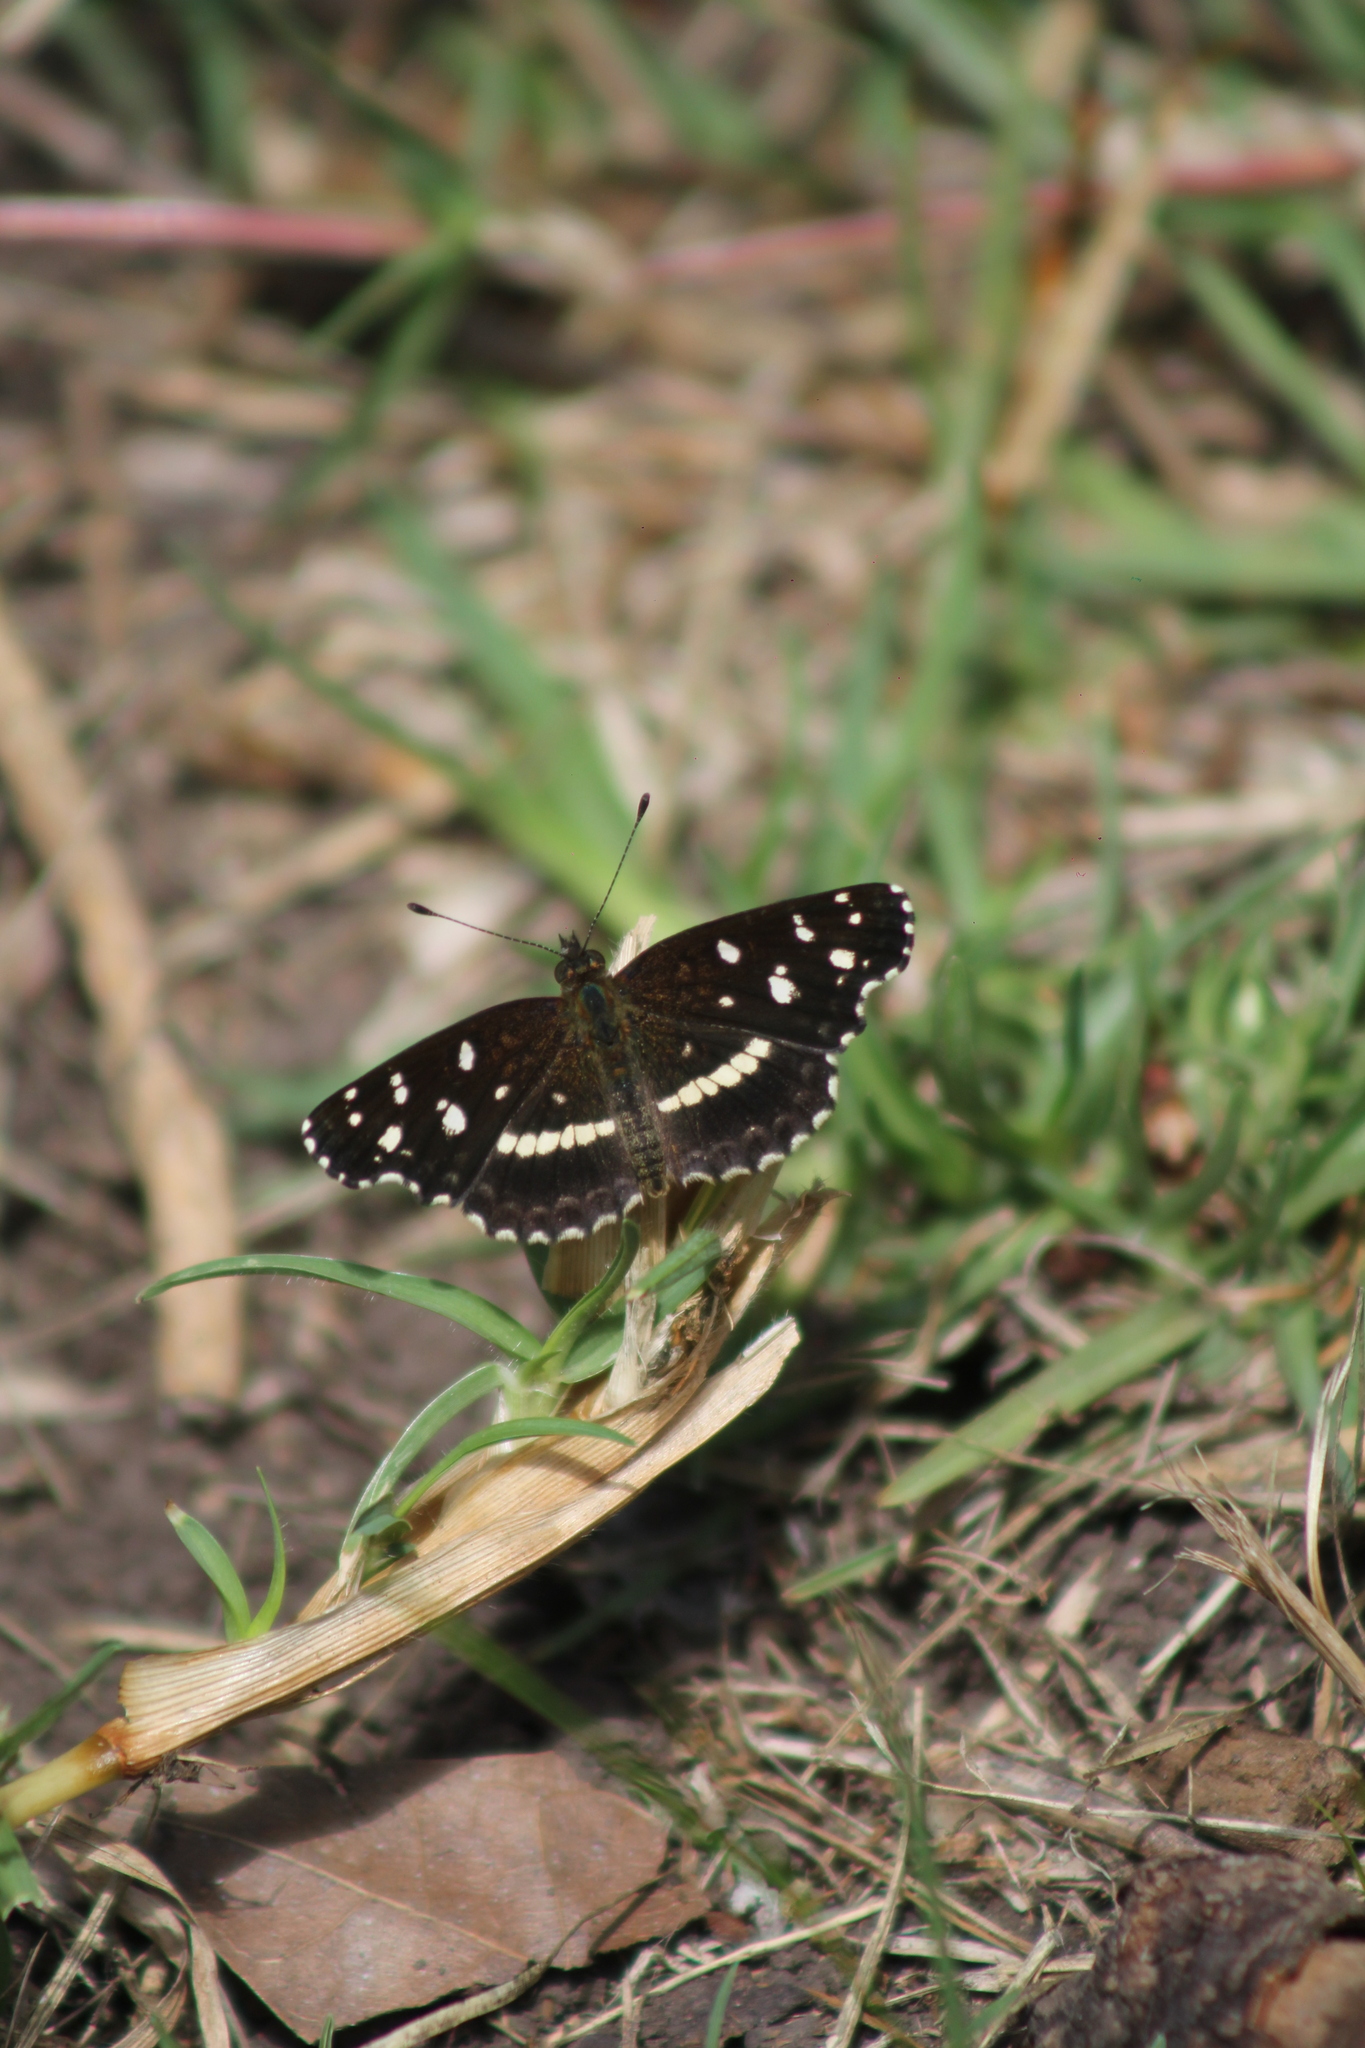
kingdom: Animalia
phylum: Arthropoda
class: Insecta
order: Lepidoptera
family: Nymphalidae
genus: Ortilia
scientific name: Ortilia ithra
